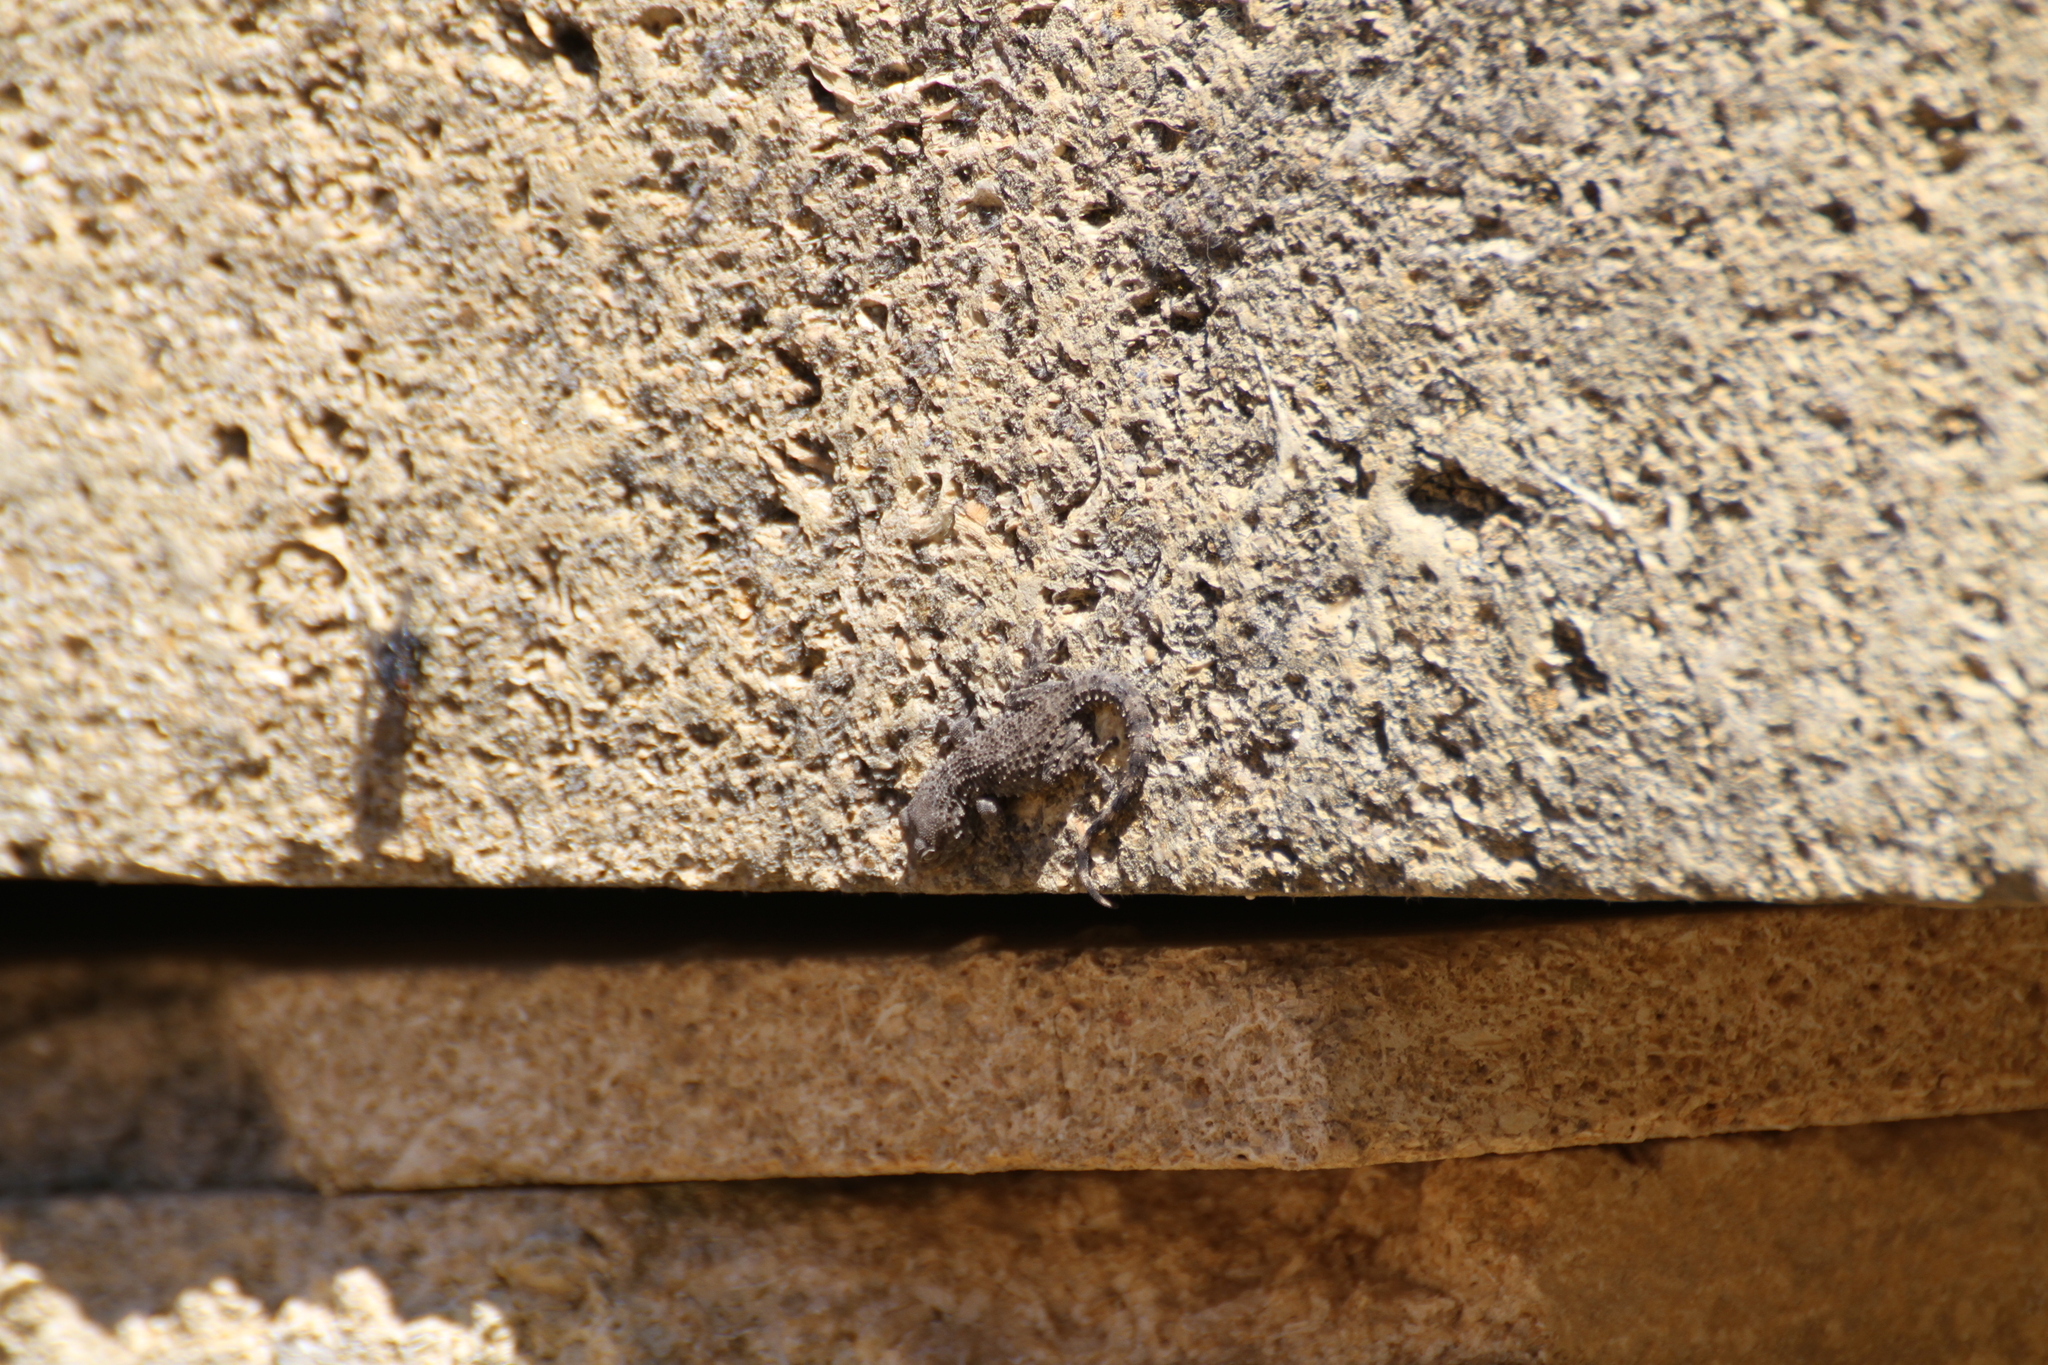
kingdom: Animalia
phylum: Chordata
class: Squamata
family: Phyllodactylidae
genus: Tarentola
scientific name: Tarentola mauritanica
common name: Moorish gecko
